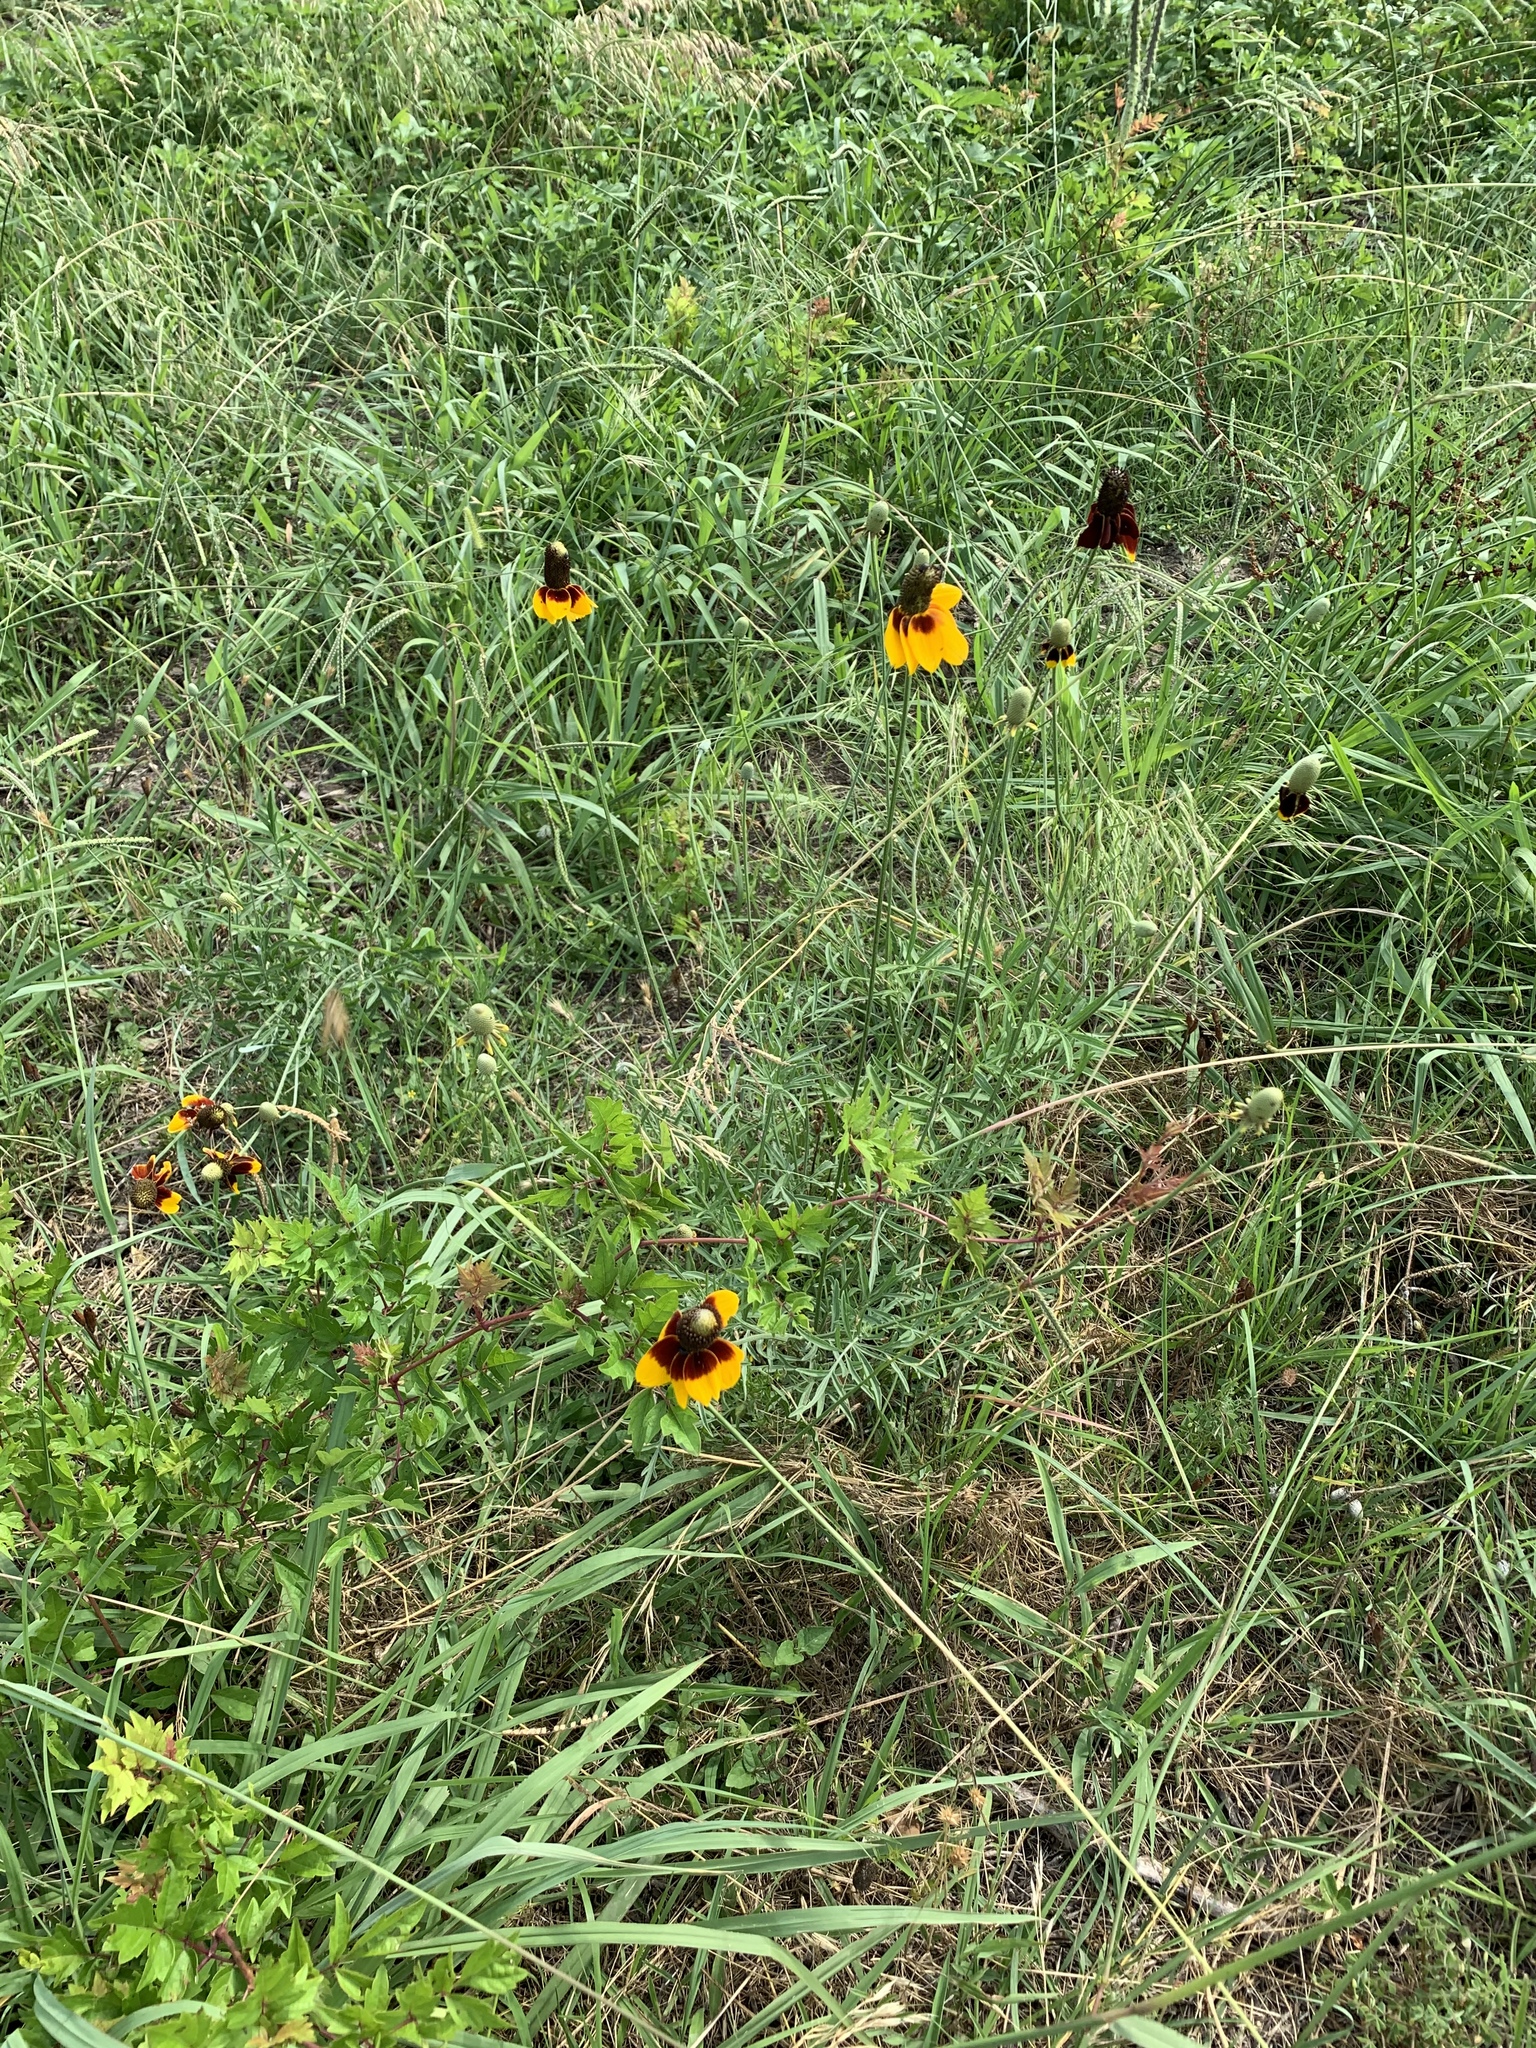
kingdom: Plantae
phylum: Tracheophyta
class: Magnoliopsida
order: Asterales
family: Asteraceae
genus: Ratibida
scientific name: Ratibida columnifera
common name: Prairie coneflower
